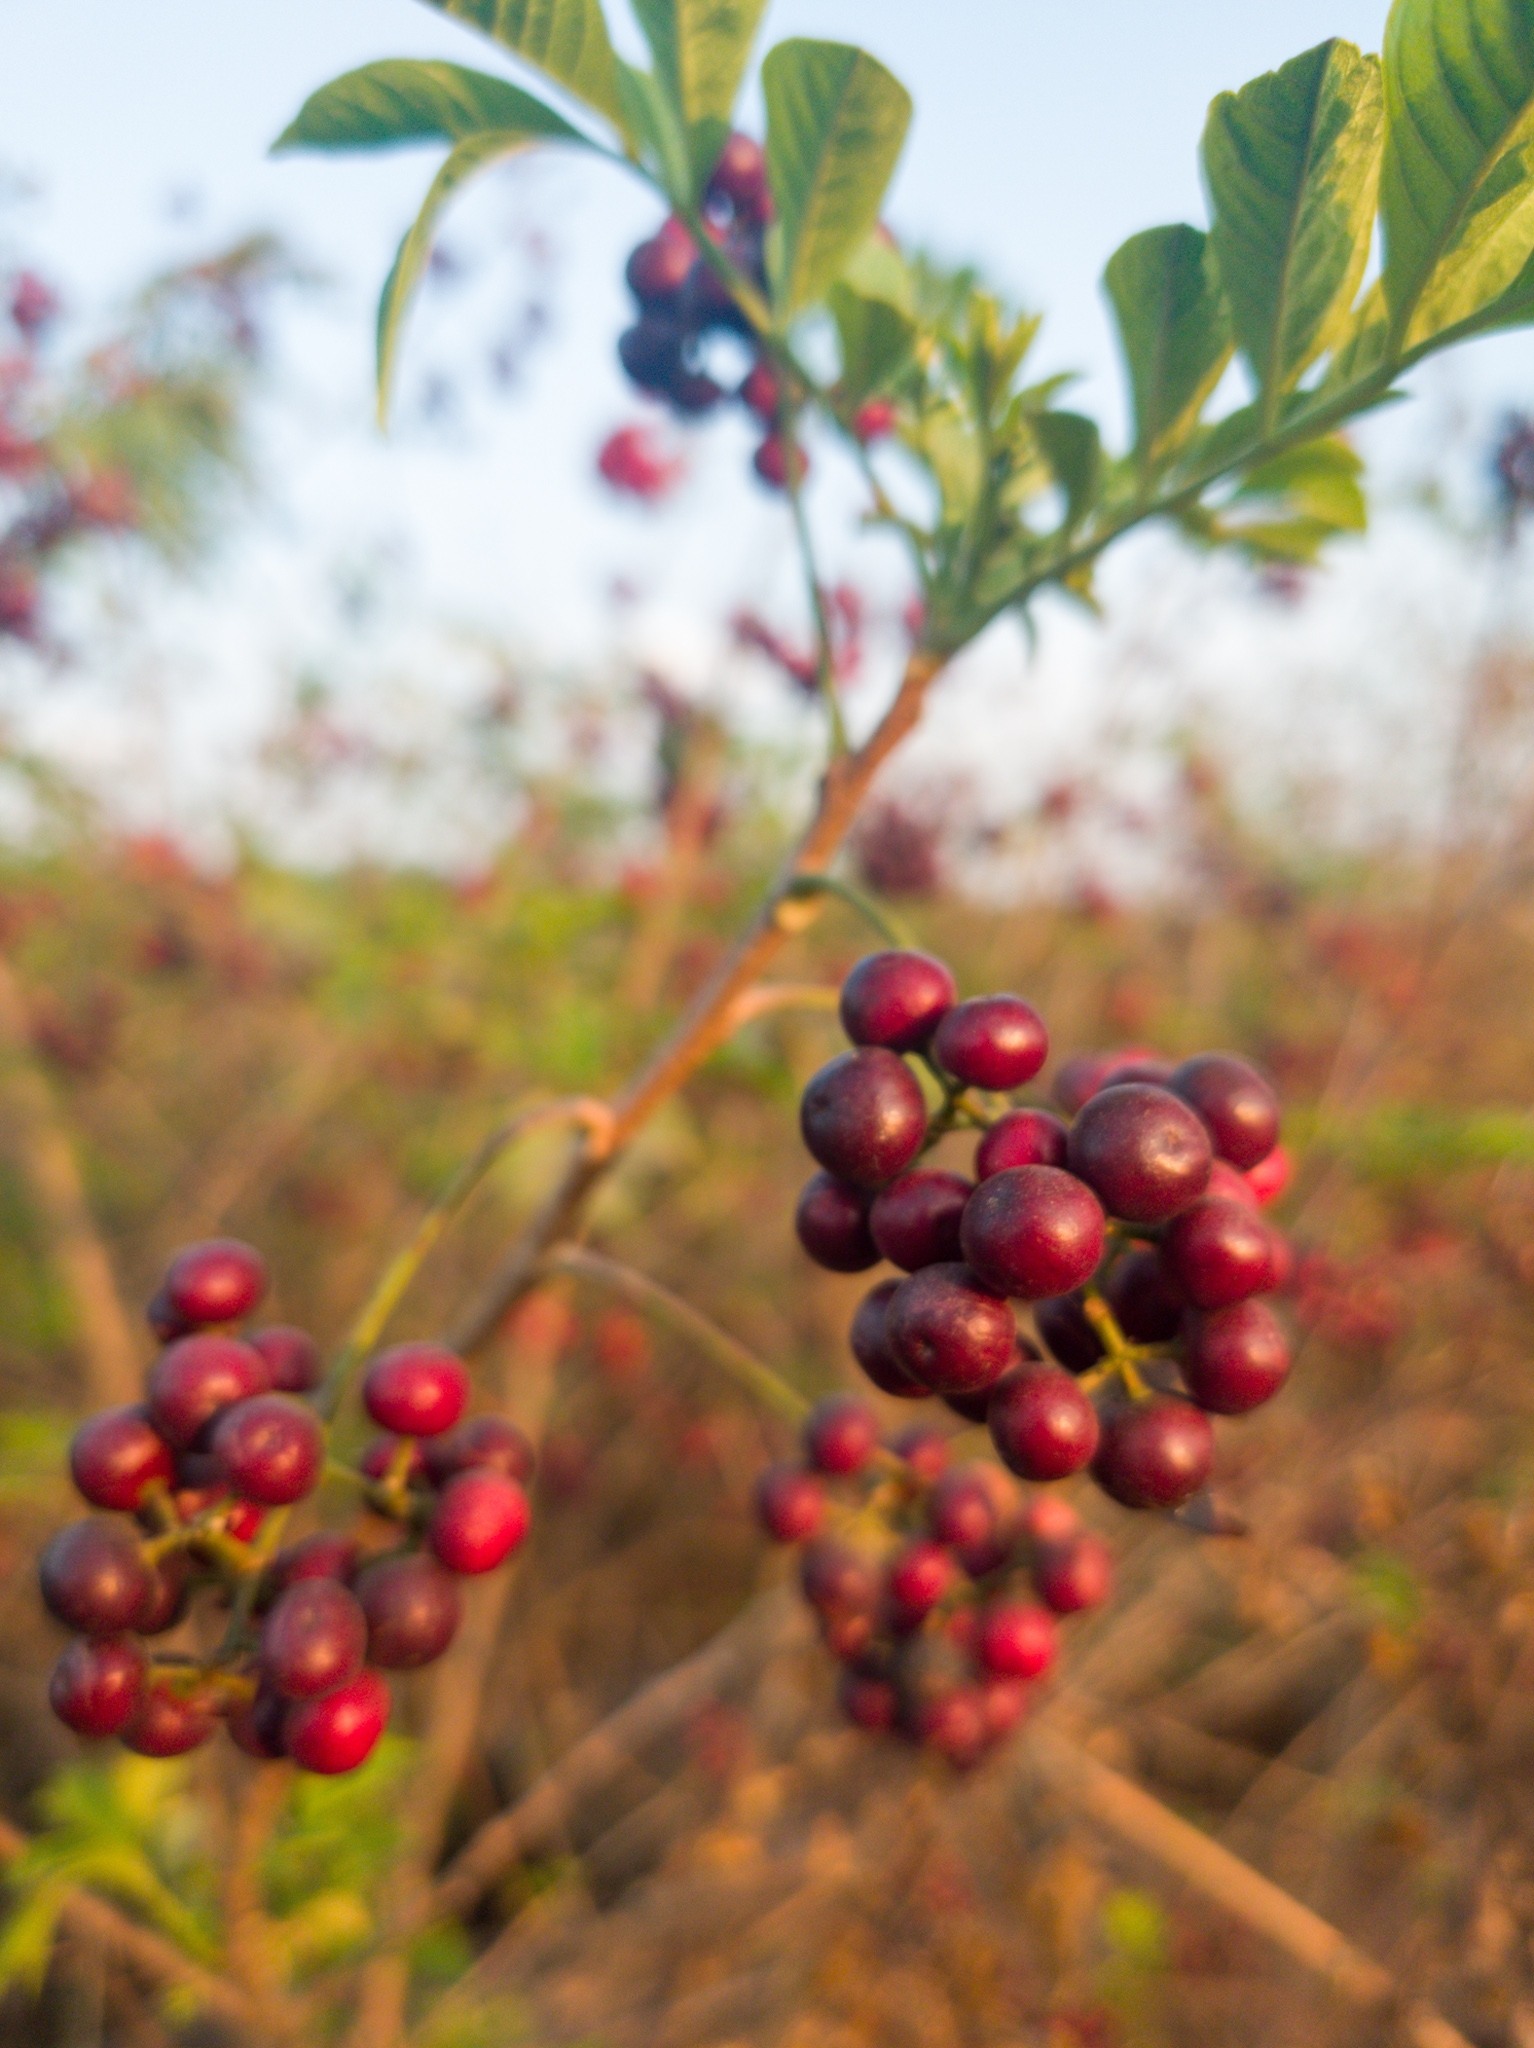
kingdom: Plantae
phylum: Tracheophyta
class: Magnoliopsida
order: Sapindales
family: Meliaceae
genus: Cipadessa
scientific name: Cipadessa baccifera
